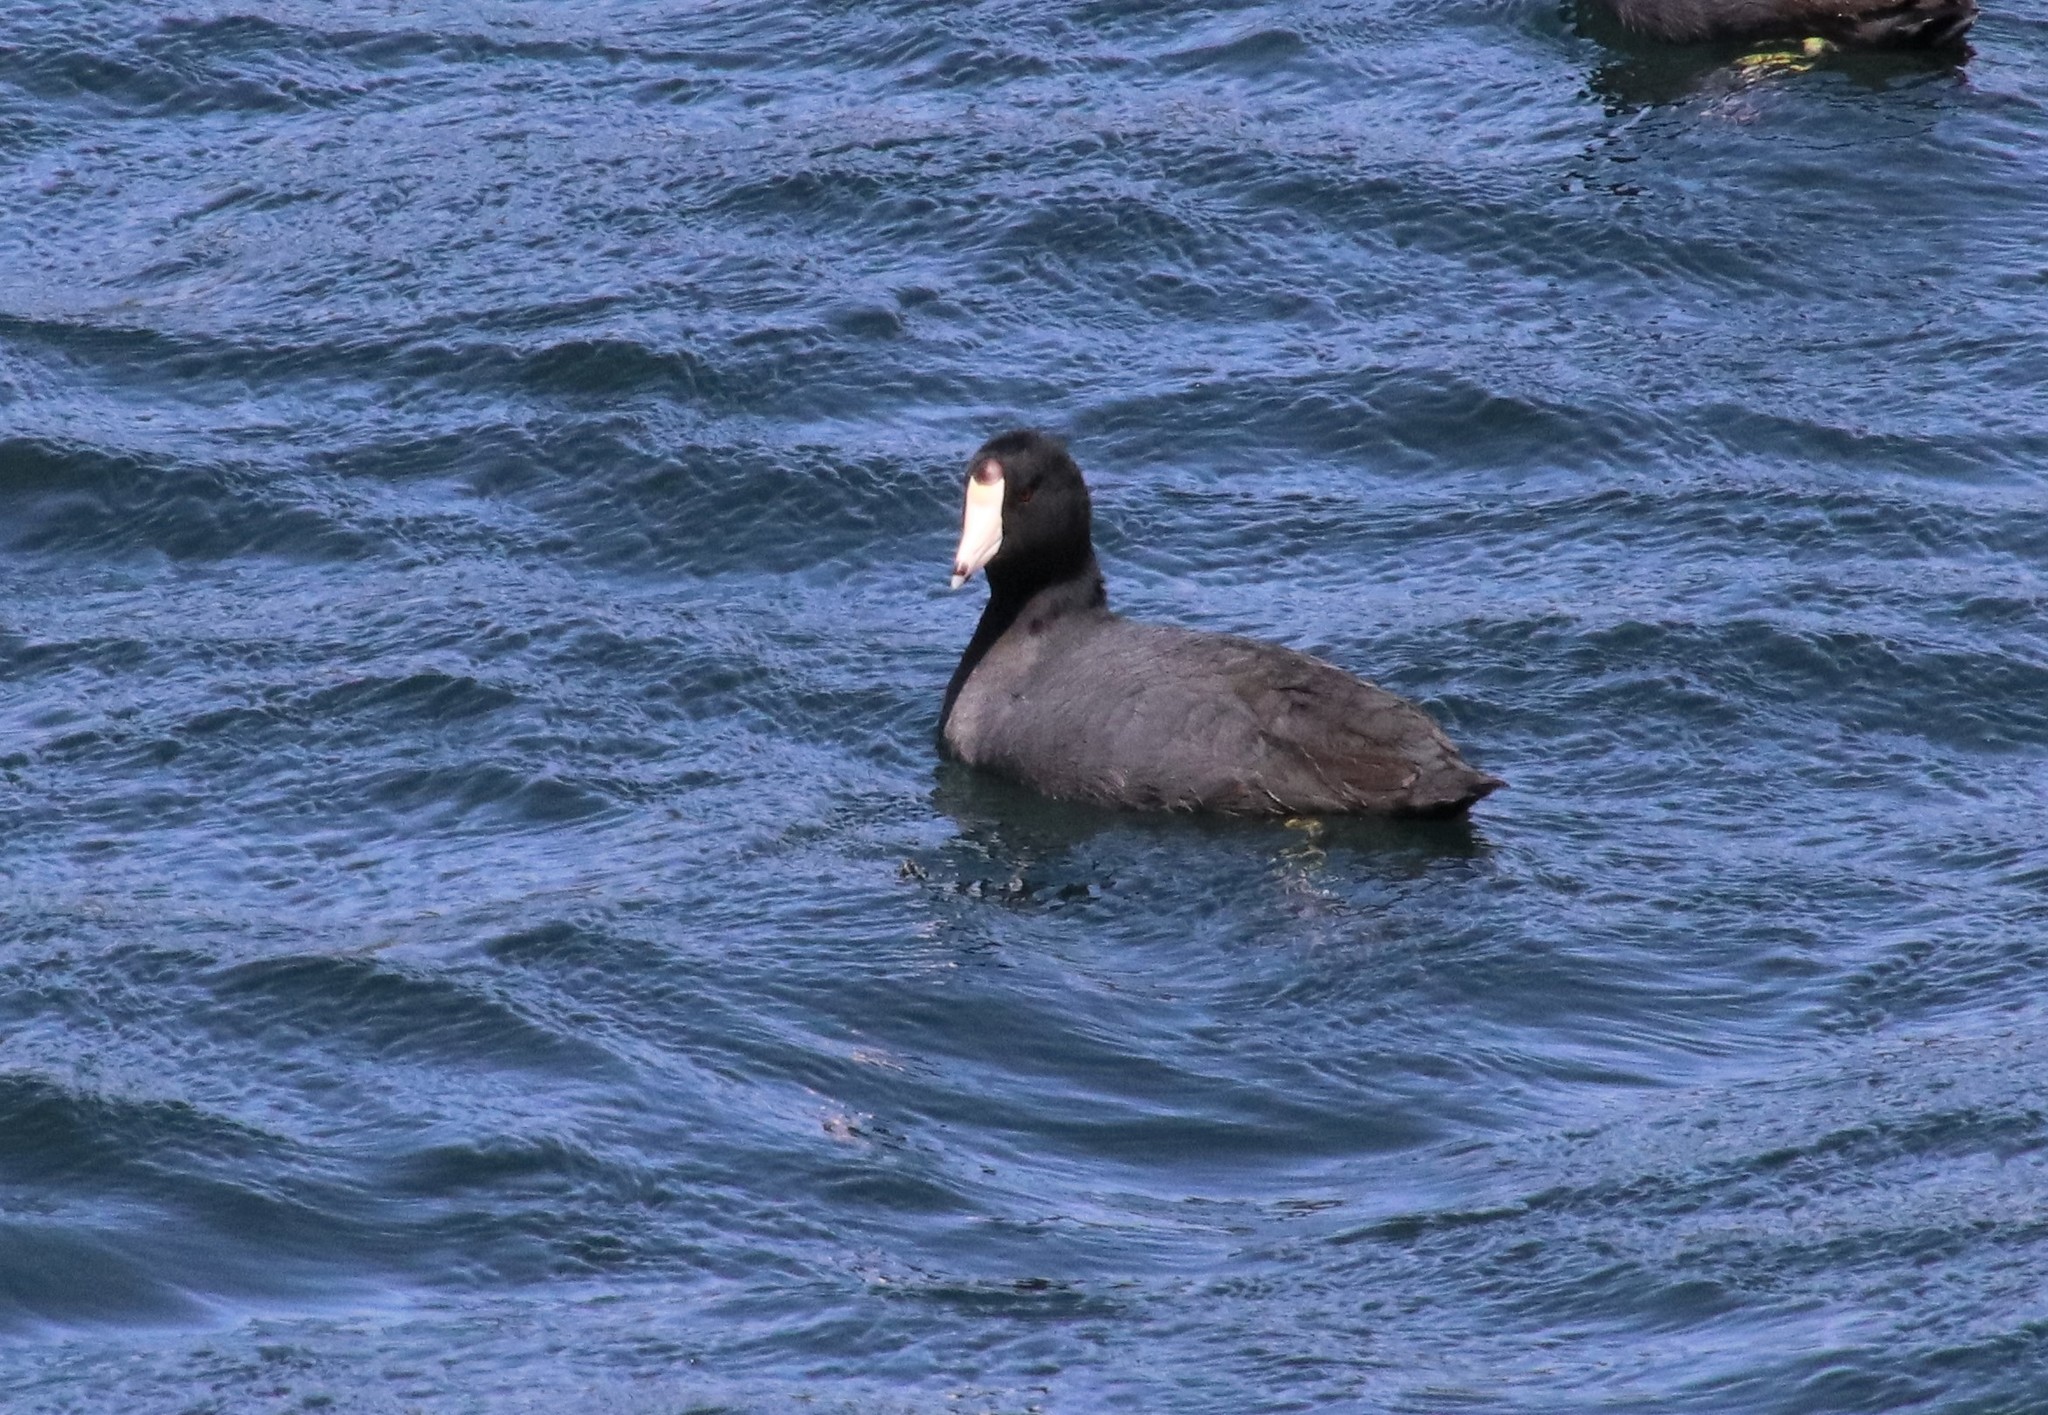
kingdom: Animalia
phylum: Chordata
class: Aves
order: Gruiformes
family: Rallidae
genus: Fulica
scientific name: Fulica americana
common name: American coot
